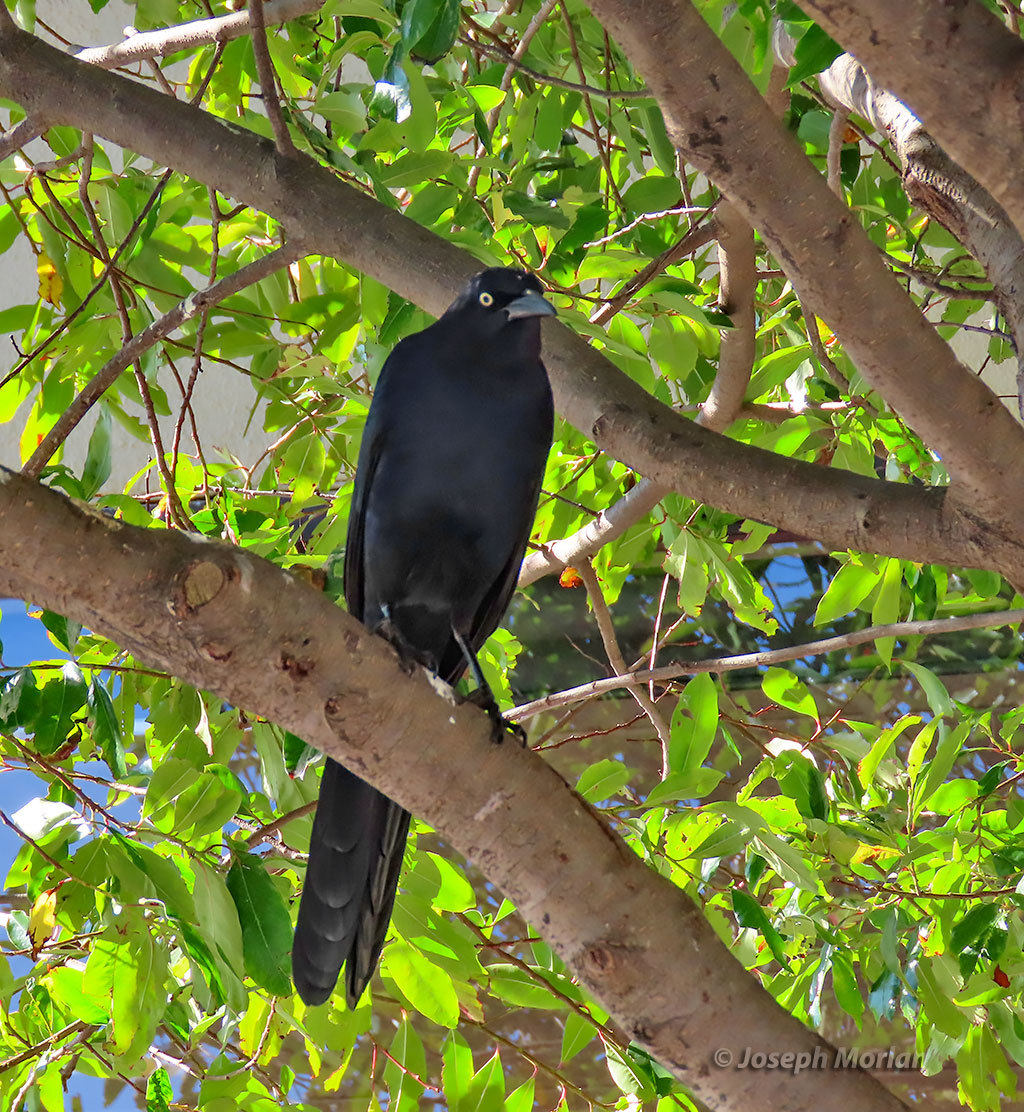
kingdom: Animalia
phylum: Chordata
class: Aves
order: Passeriformes
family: Icteridae
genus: Quiscalus
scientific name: Quiscalus mexicanus
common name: Great-tailed grackle
